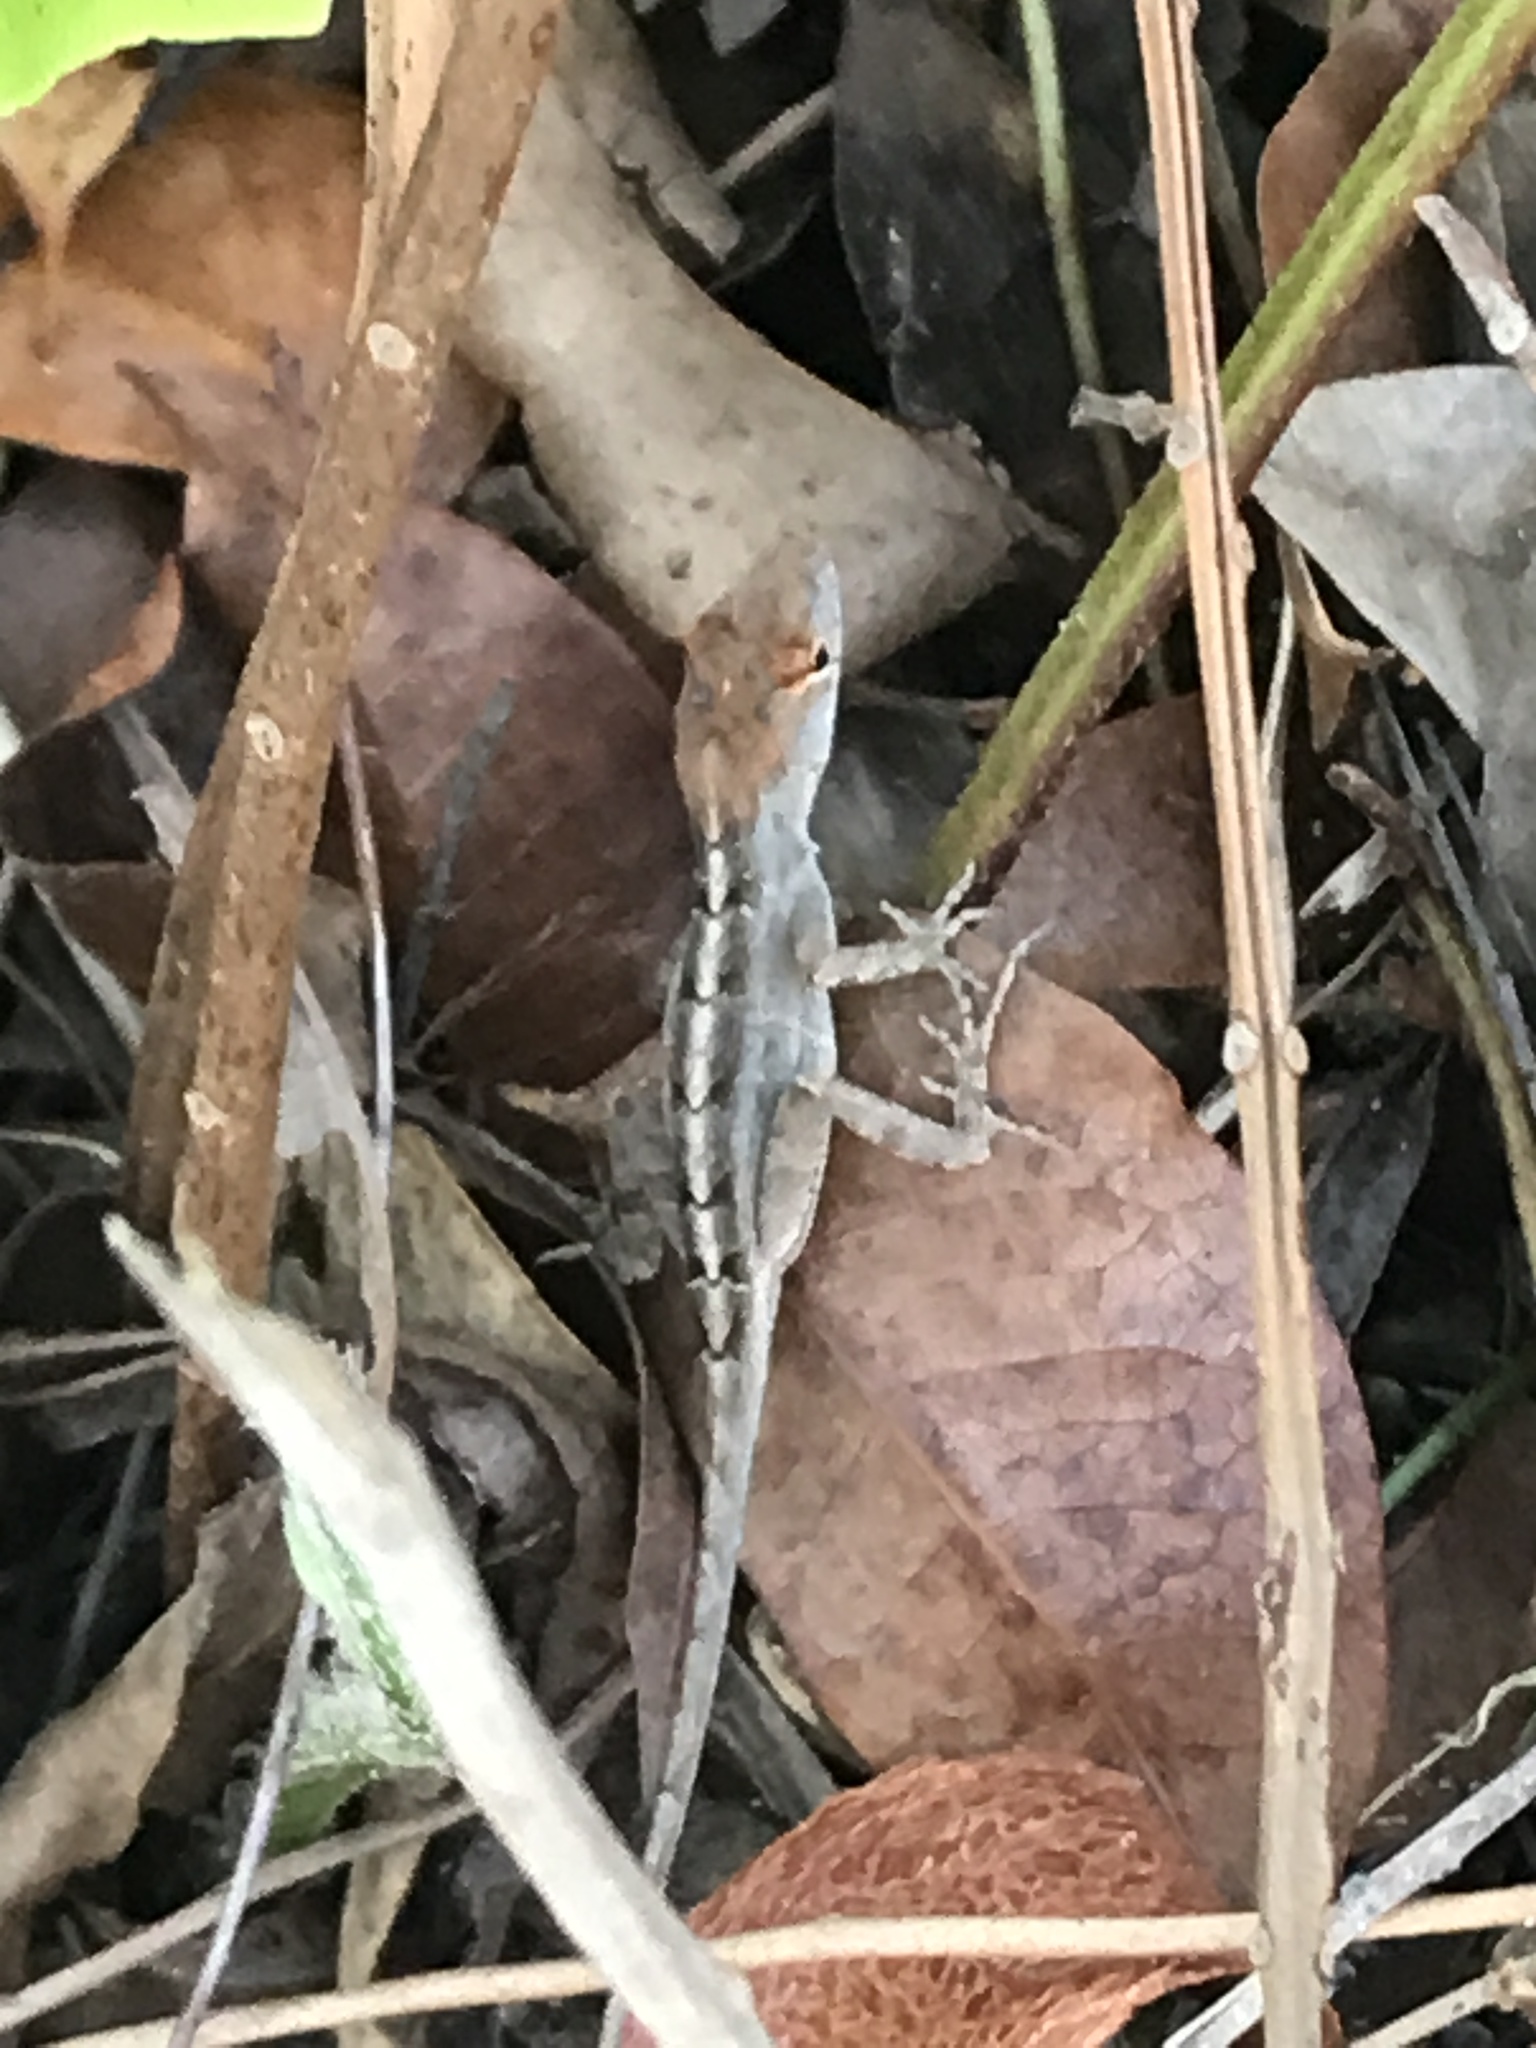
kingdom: Animalia
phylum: Chordata
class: Squamata
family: Dactyloidae
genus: Anolis
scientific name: Anolis sagrei
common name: Brown anole
